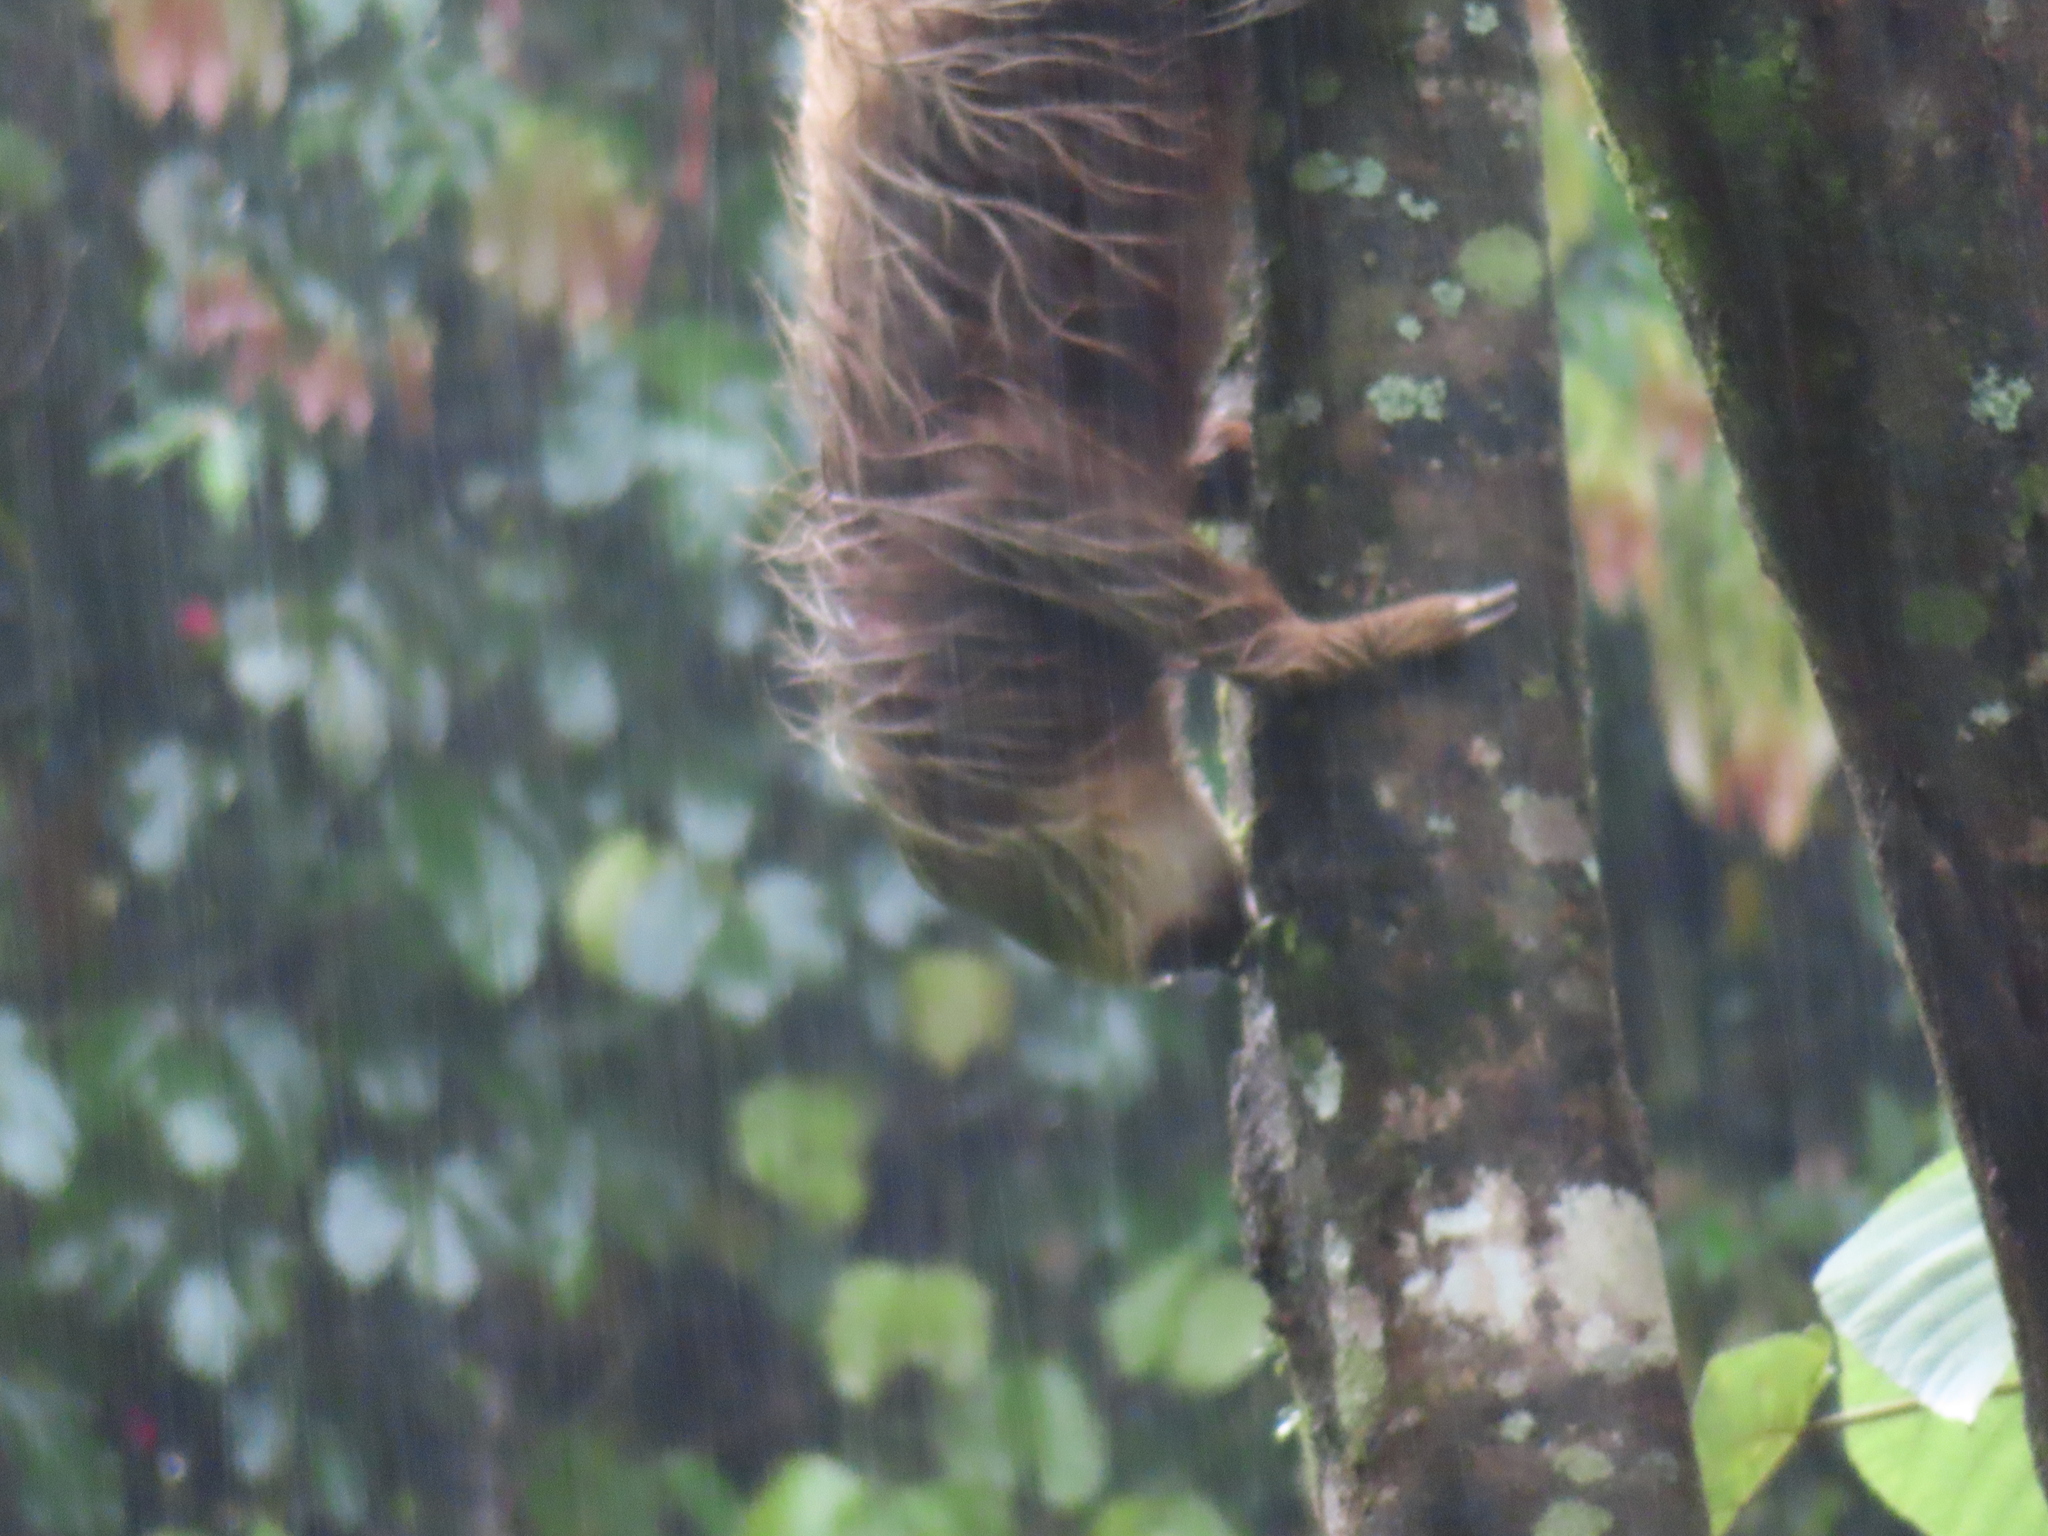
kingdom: Animalia
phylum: Chordata
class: Mammalia
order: Pilosa
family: Megalonychidae
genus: Choloepus
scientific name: Choloepus hoffmanni
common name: Hoffmann's two-toed sloth
